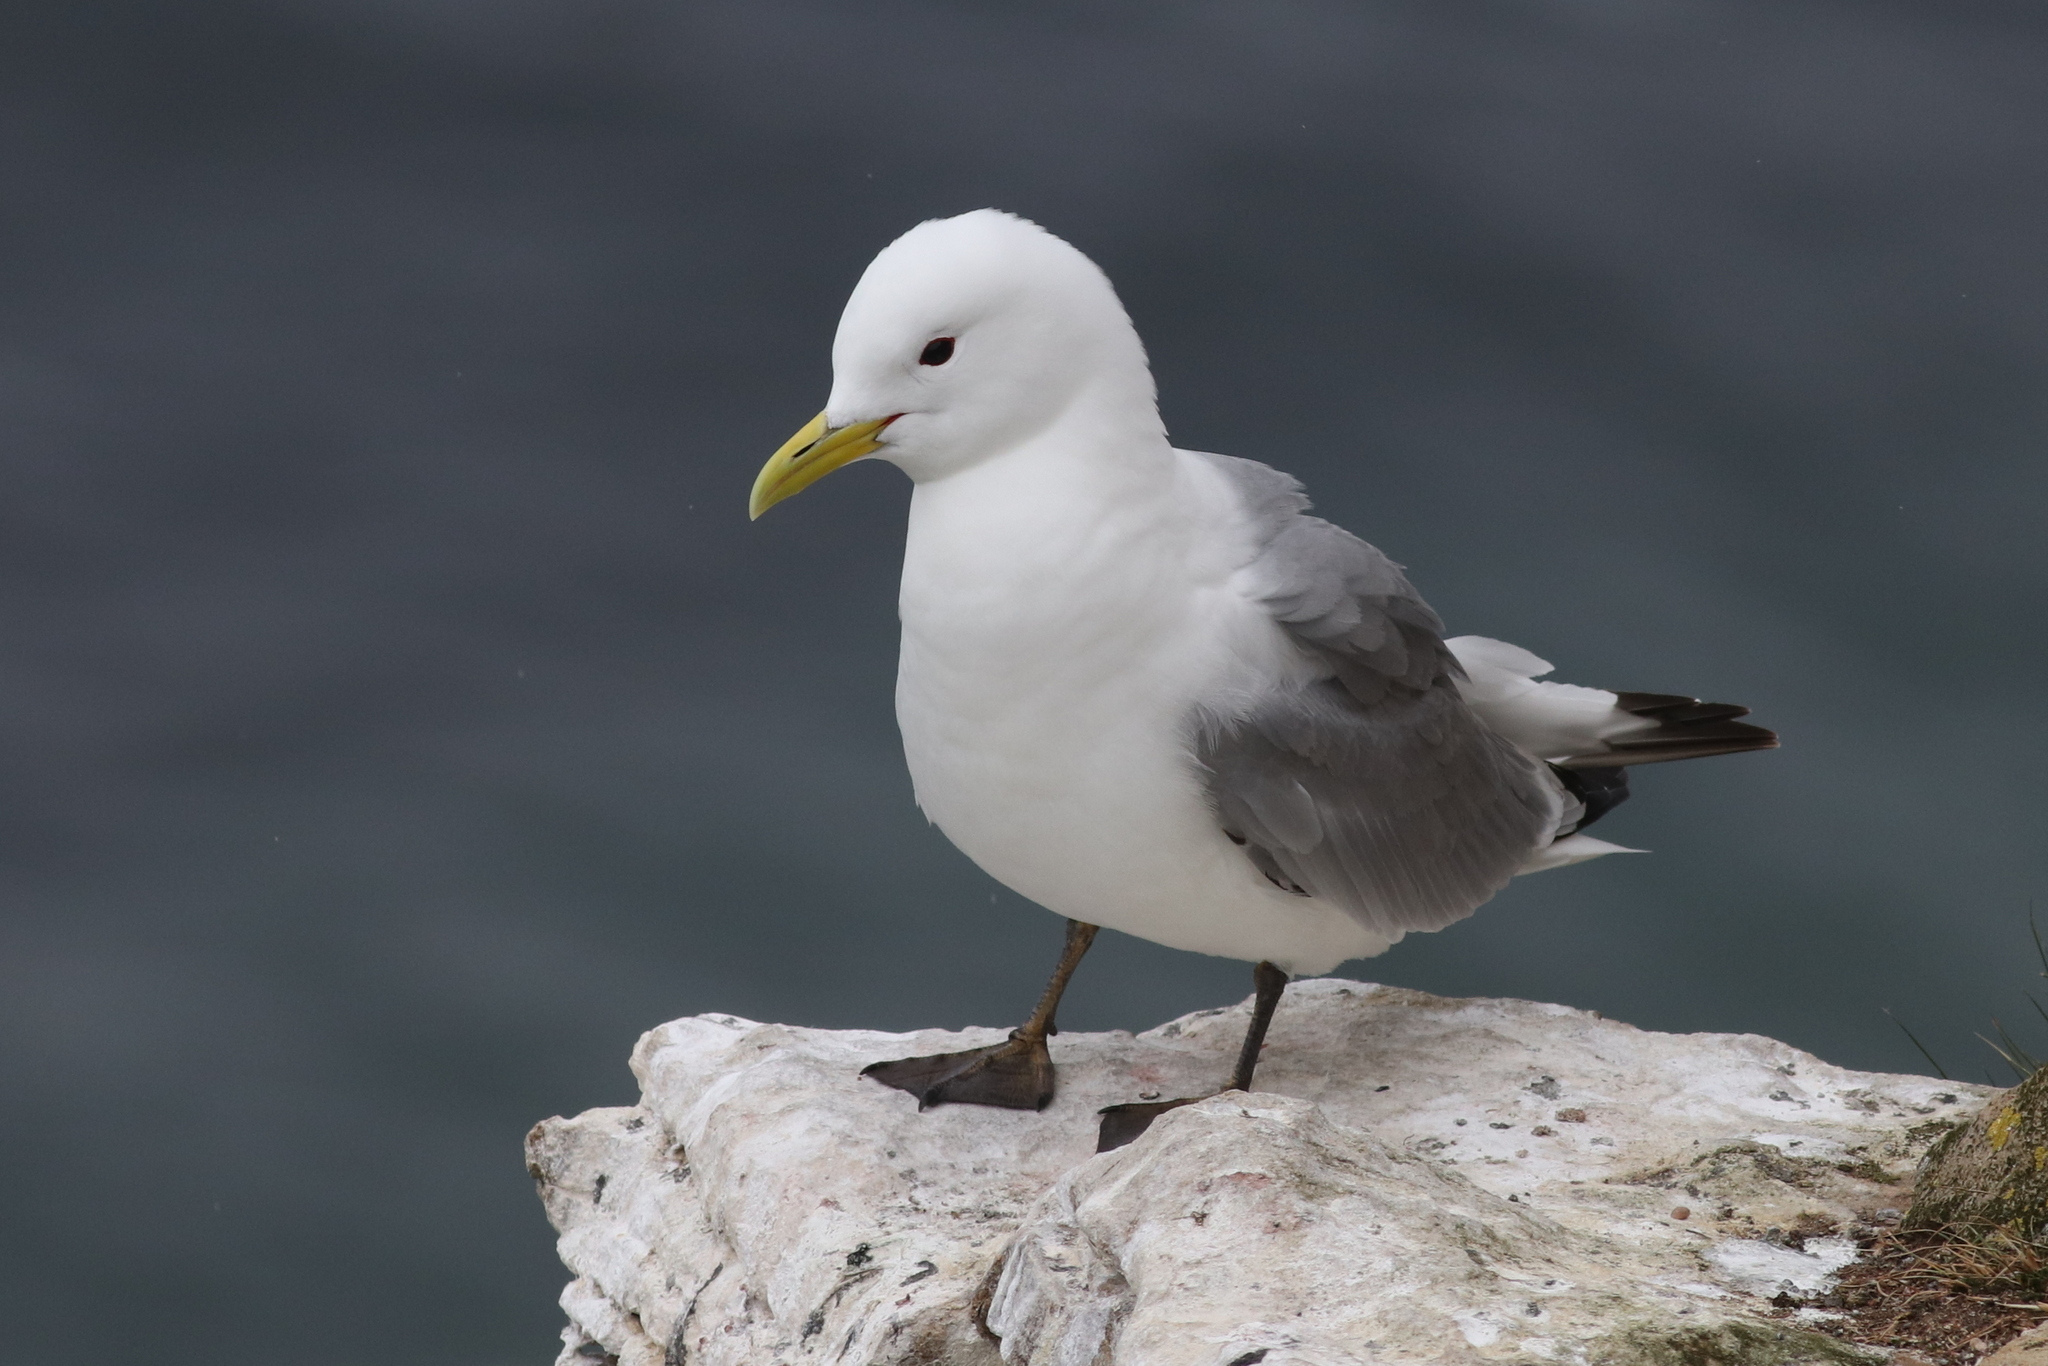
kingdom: Animalia
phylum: Chordata
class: Aves
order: Charadriiformes
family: Laridae
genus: Rissa
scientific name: Rissa tridactyla
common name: Black-legged kittiwake
